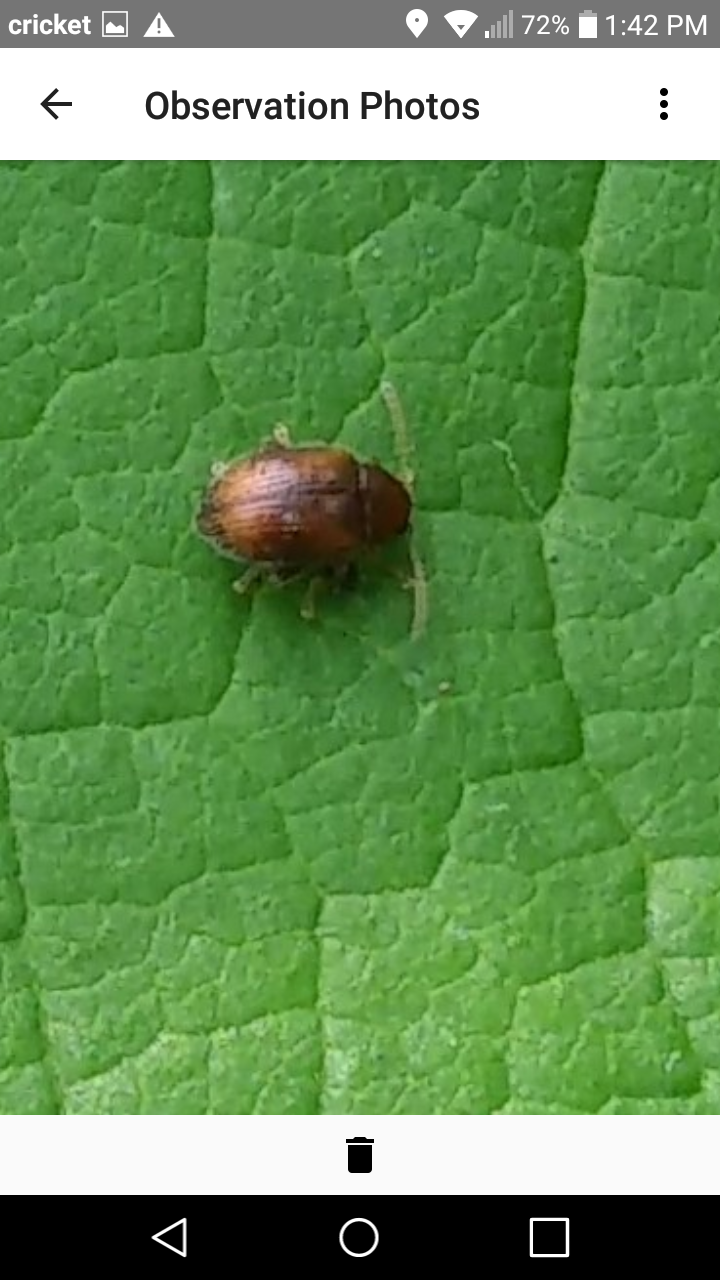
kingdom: Animalia
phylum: Arthropoda
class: Insecta
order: Coleoptera
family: Chrysomelidae
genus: Epitrix
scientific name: Epitrix hirtipennis
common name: Tobacco flea beetle
